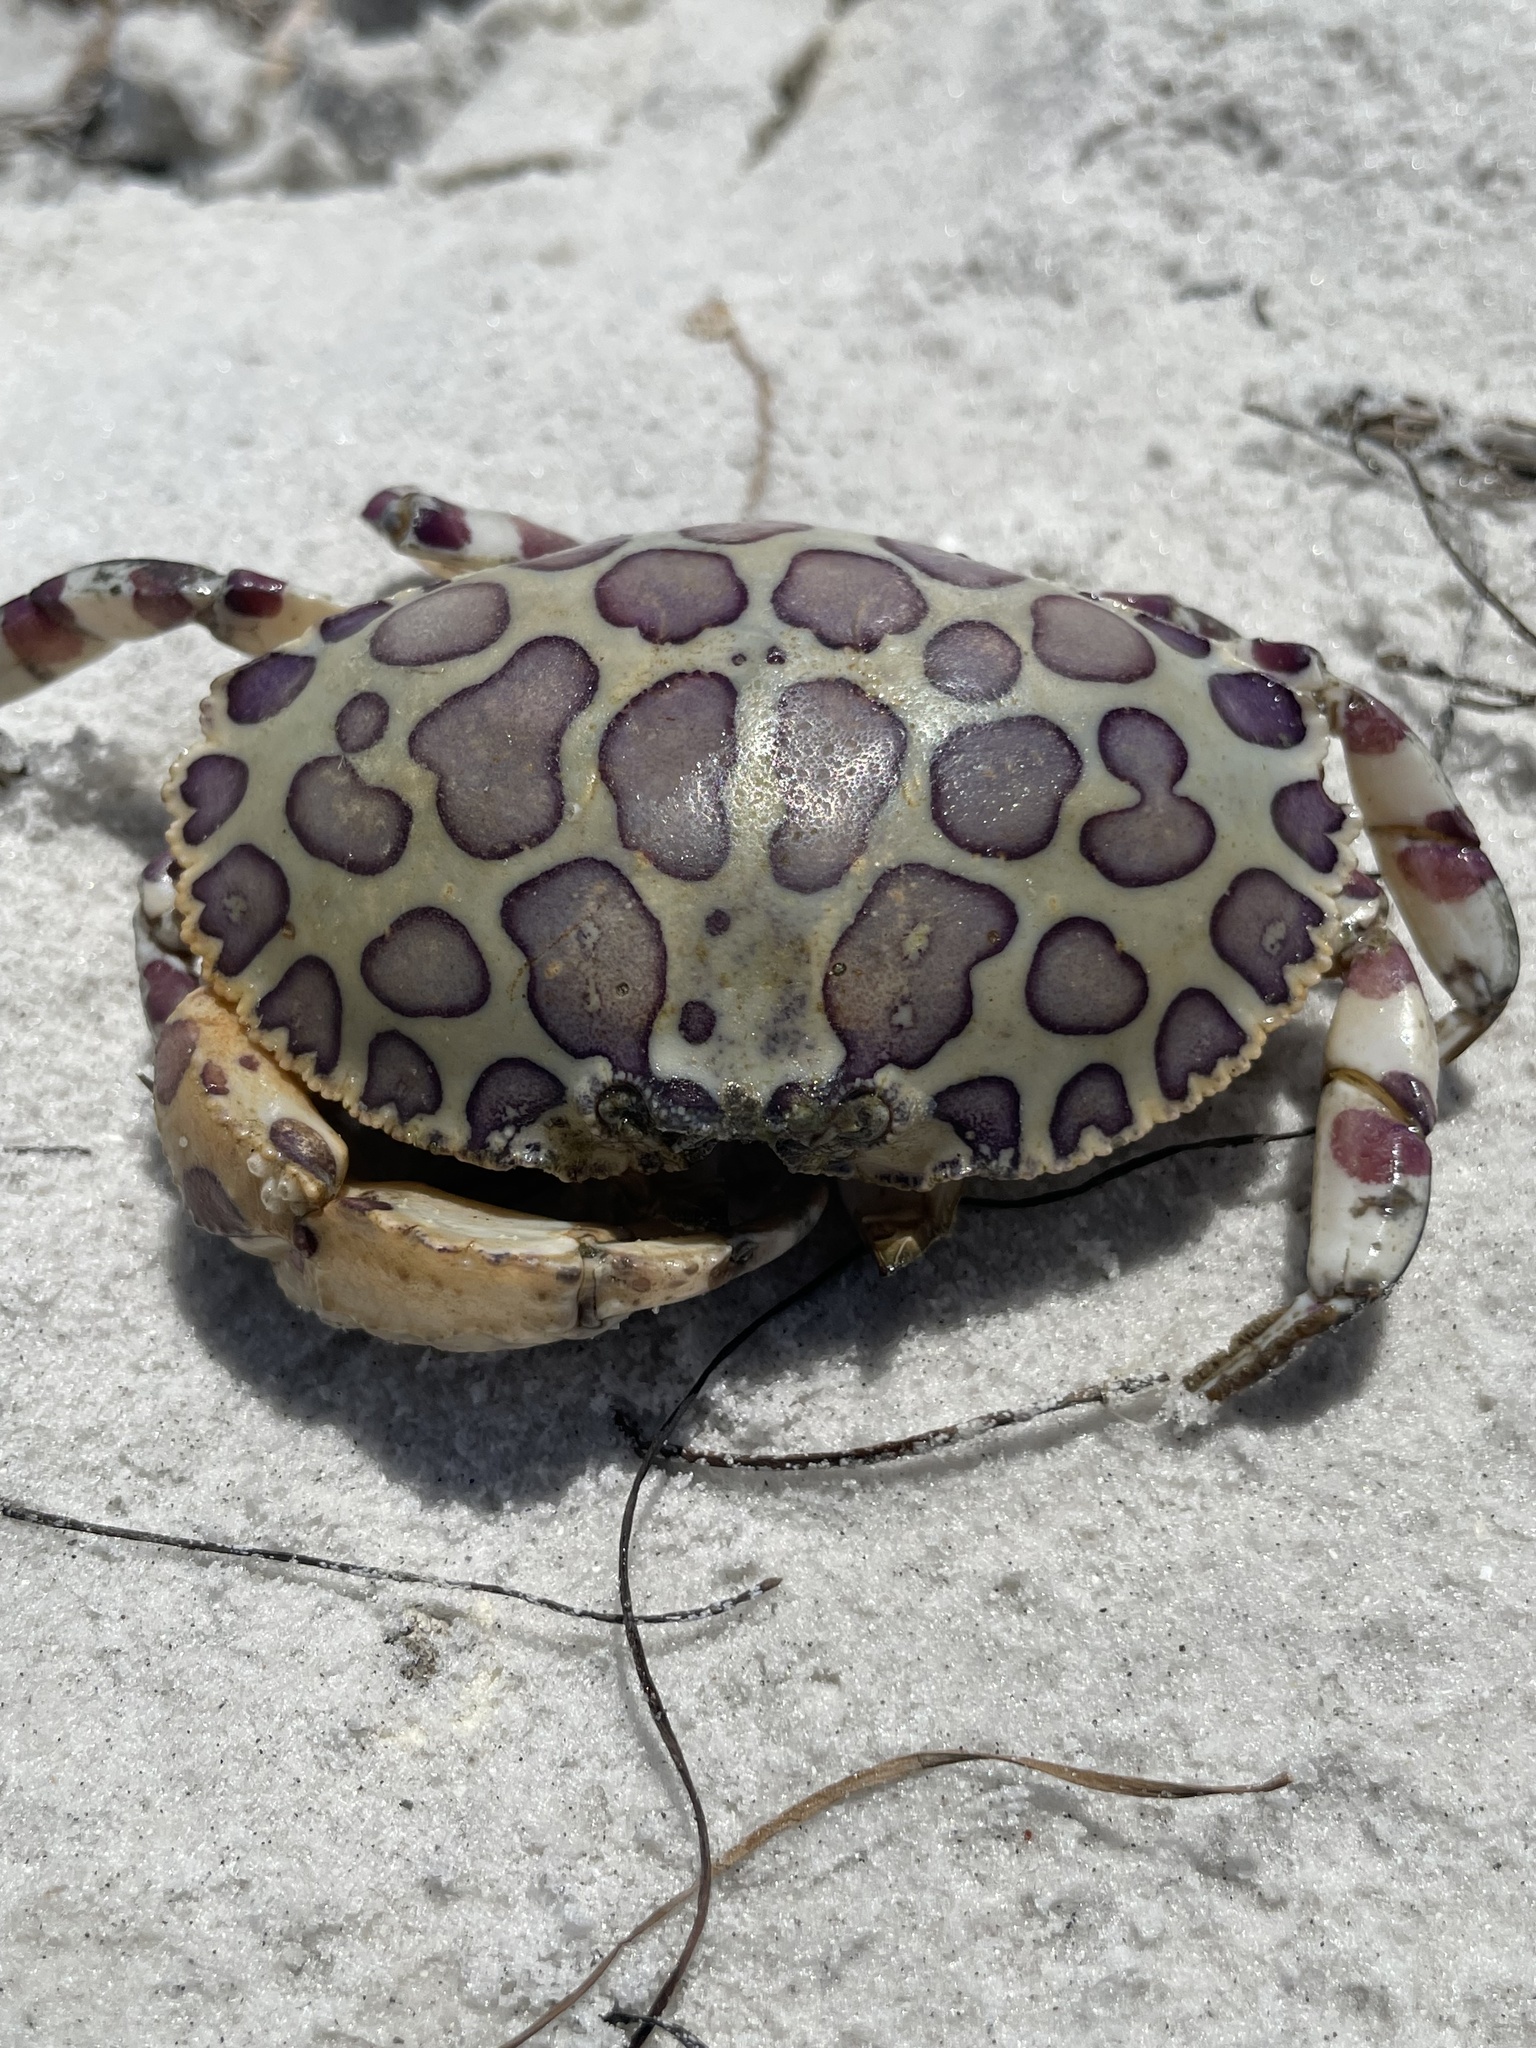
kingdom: Animalia
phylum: Arthropoda
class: Malacostraca
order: Decapoda
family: Aethridae
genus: Hepatus
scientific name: Hepatus epheliticus
